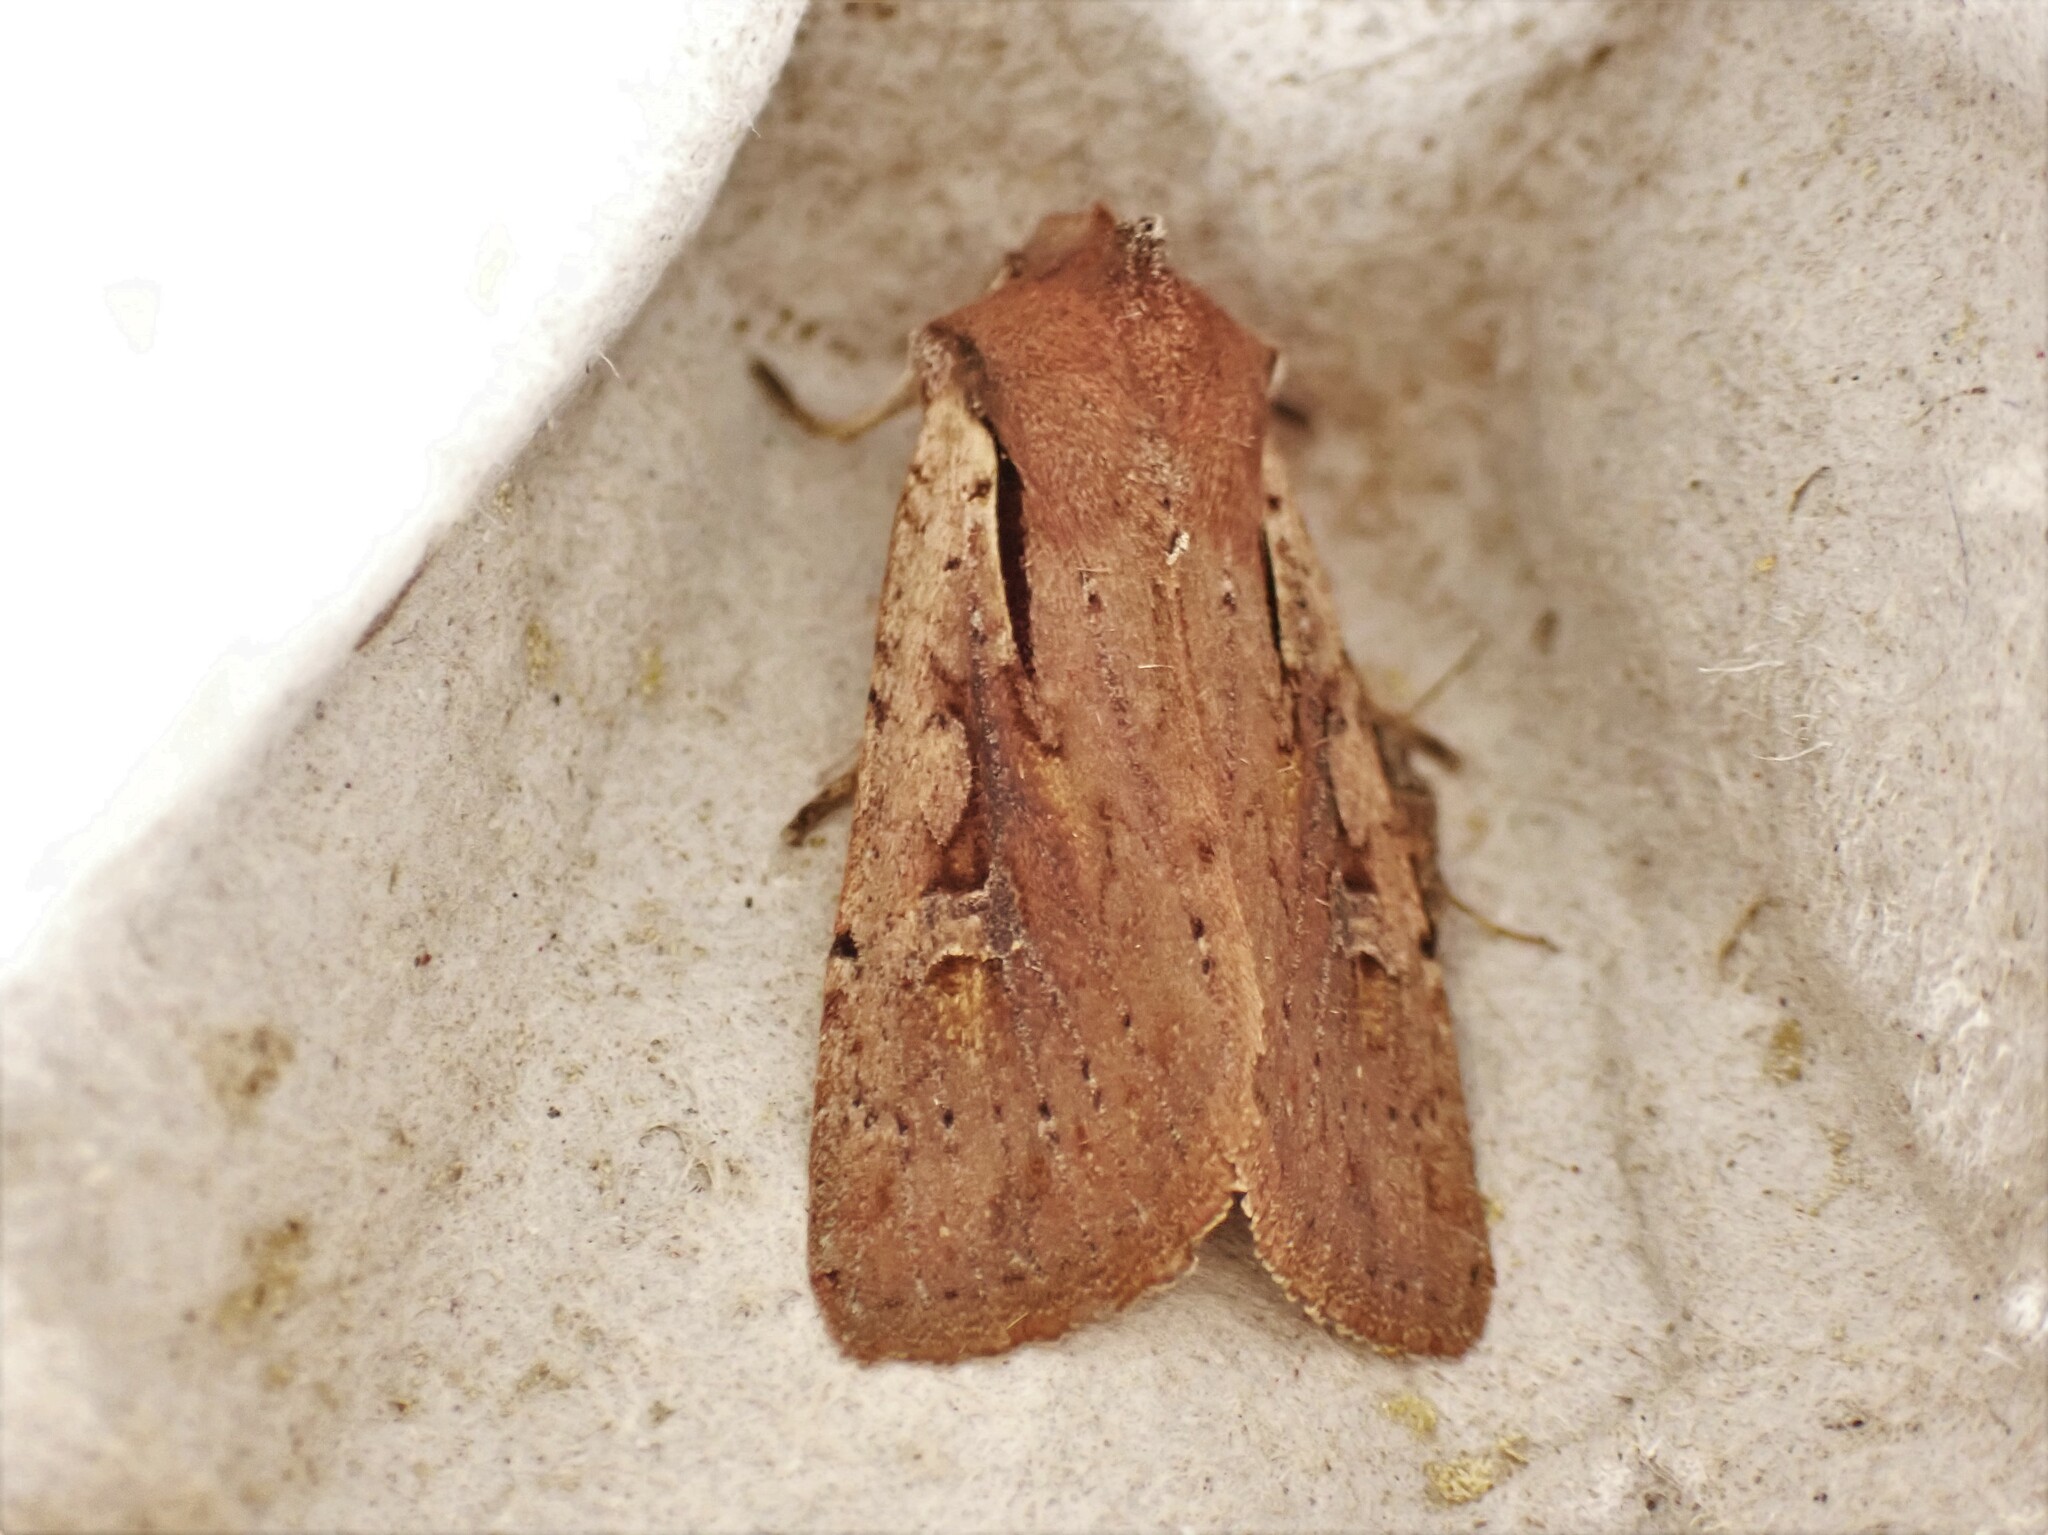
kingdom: Animalia
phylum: Arthropoda
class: Insecta
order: Lepidoptera
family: Noctuidae
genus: Ichneutica
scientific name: Ichneutica atristriga
